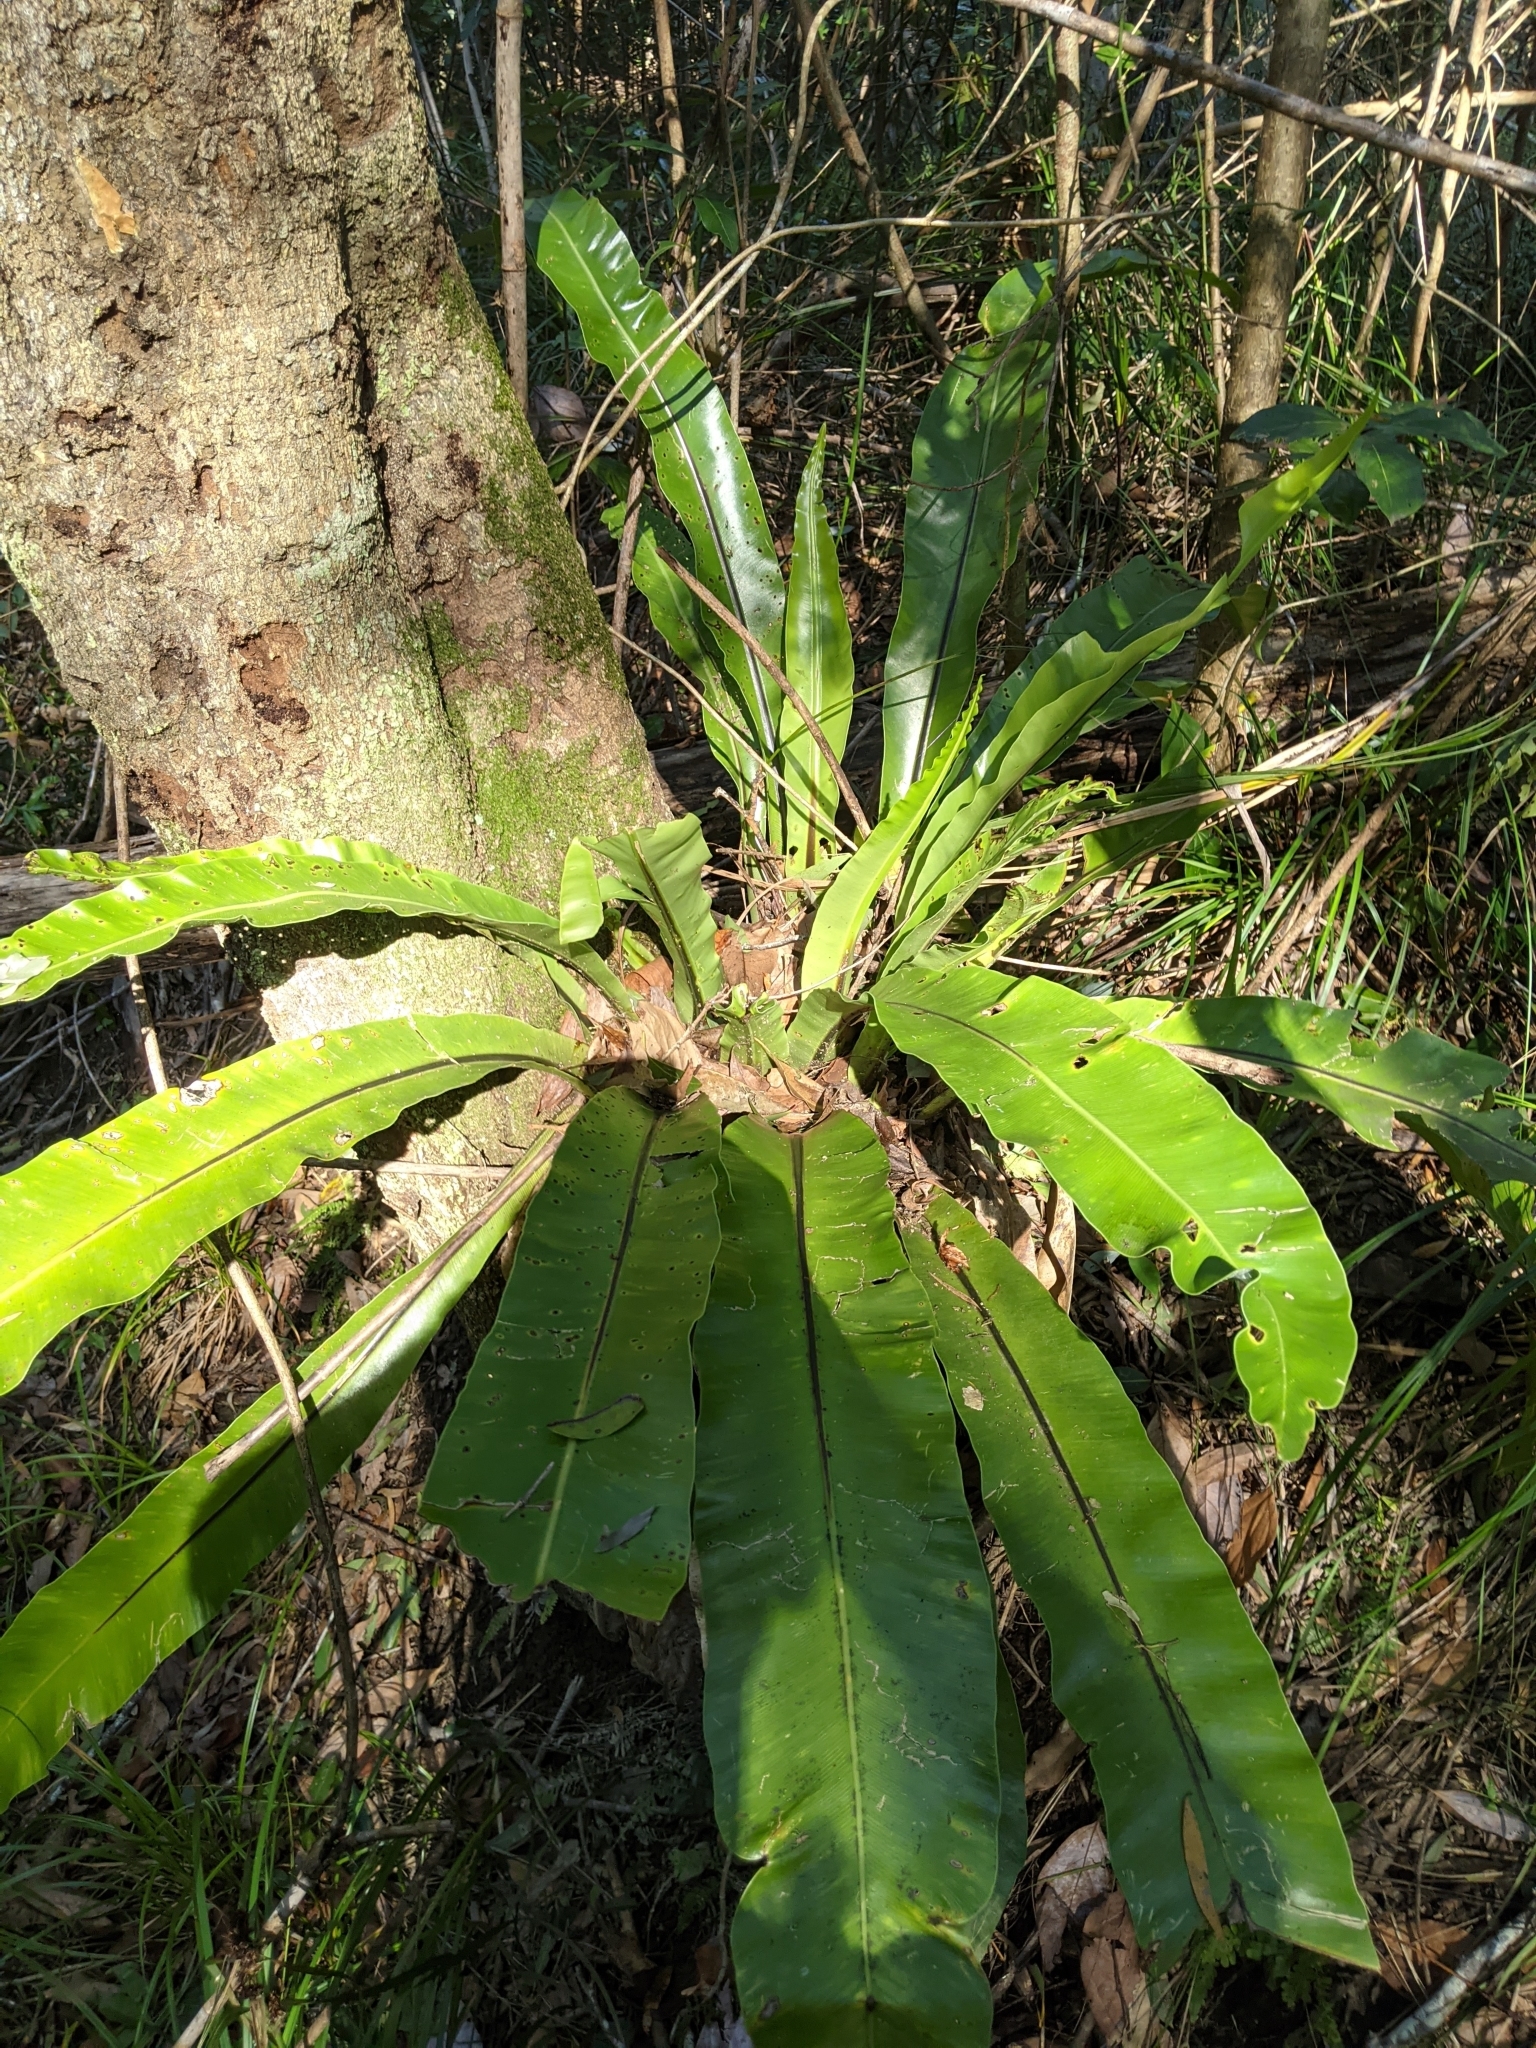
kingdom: Plantae
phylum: Tracheophyta
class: Polypodiopsida
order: Polypodiales
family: Aspleniaceae
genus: Asplenium
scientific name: Asplenium australasicum
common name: Bird's-nest fern
